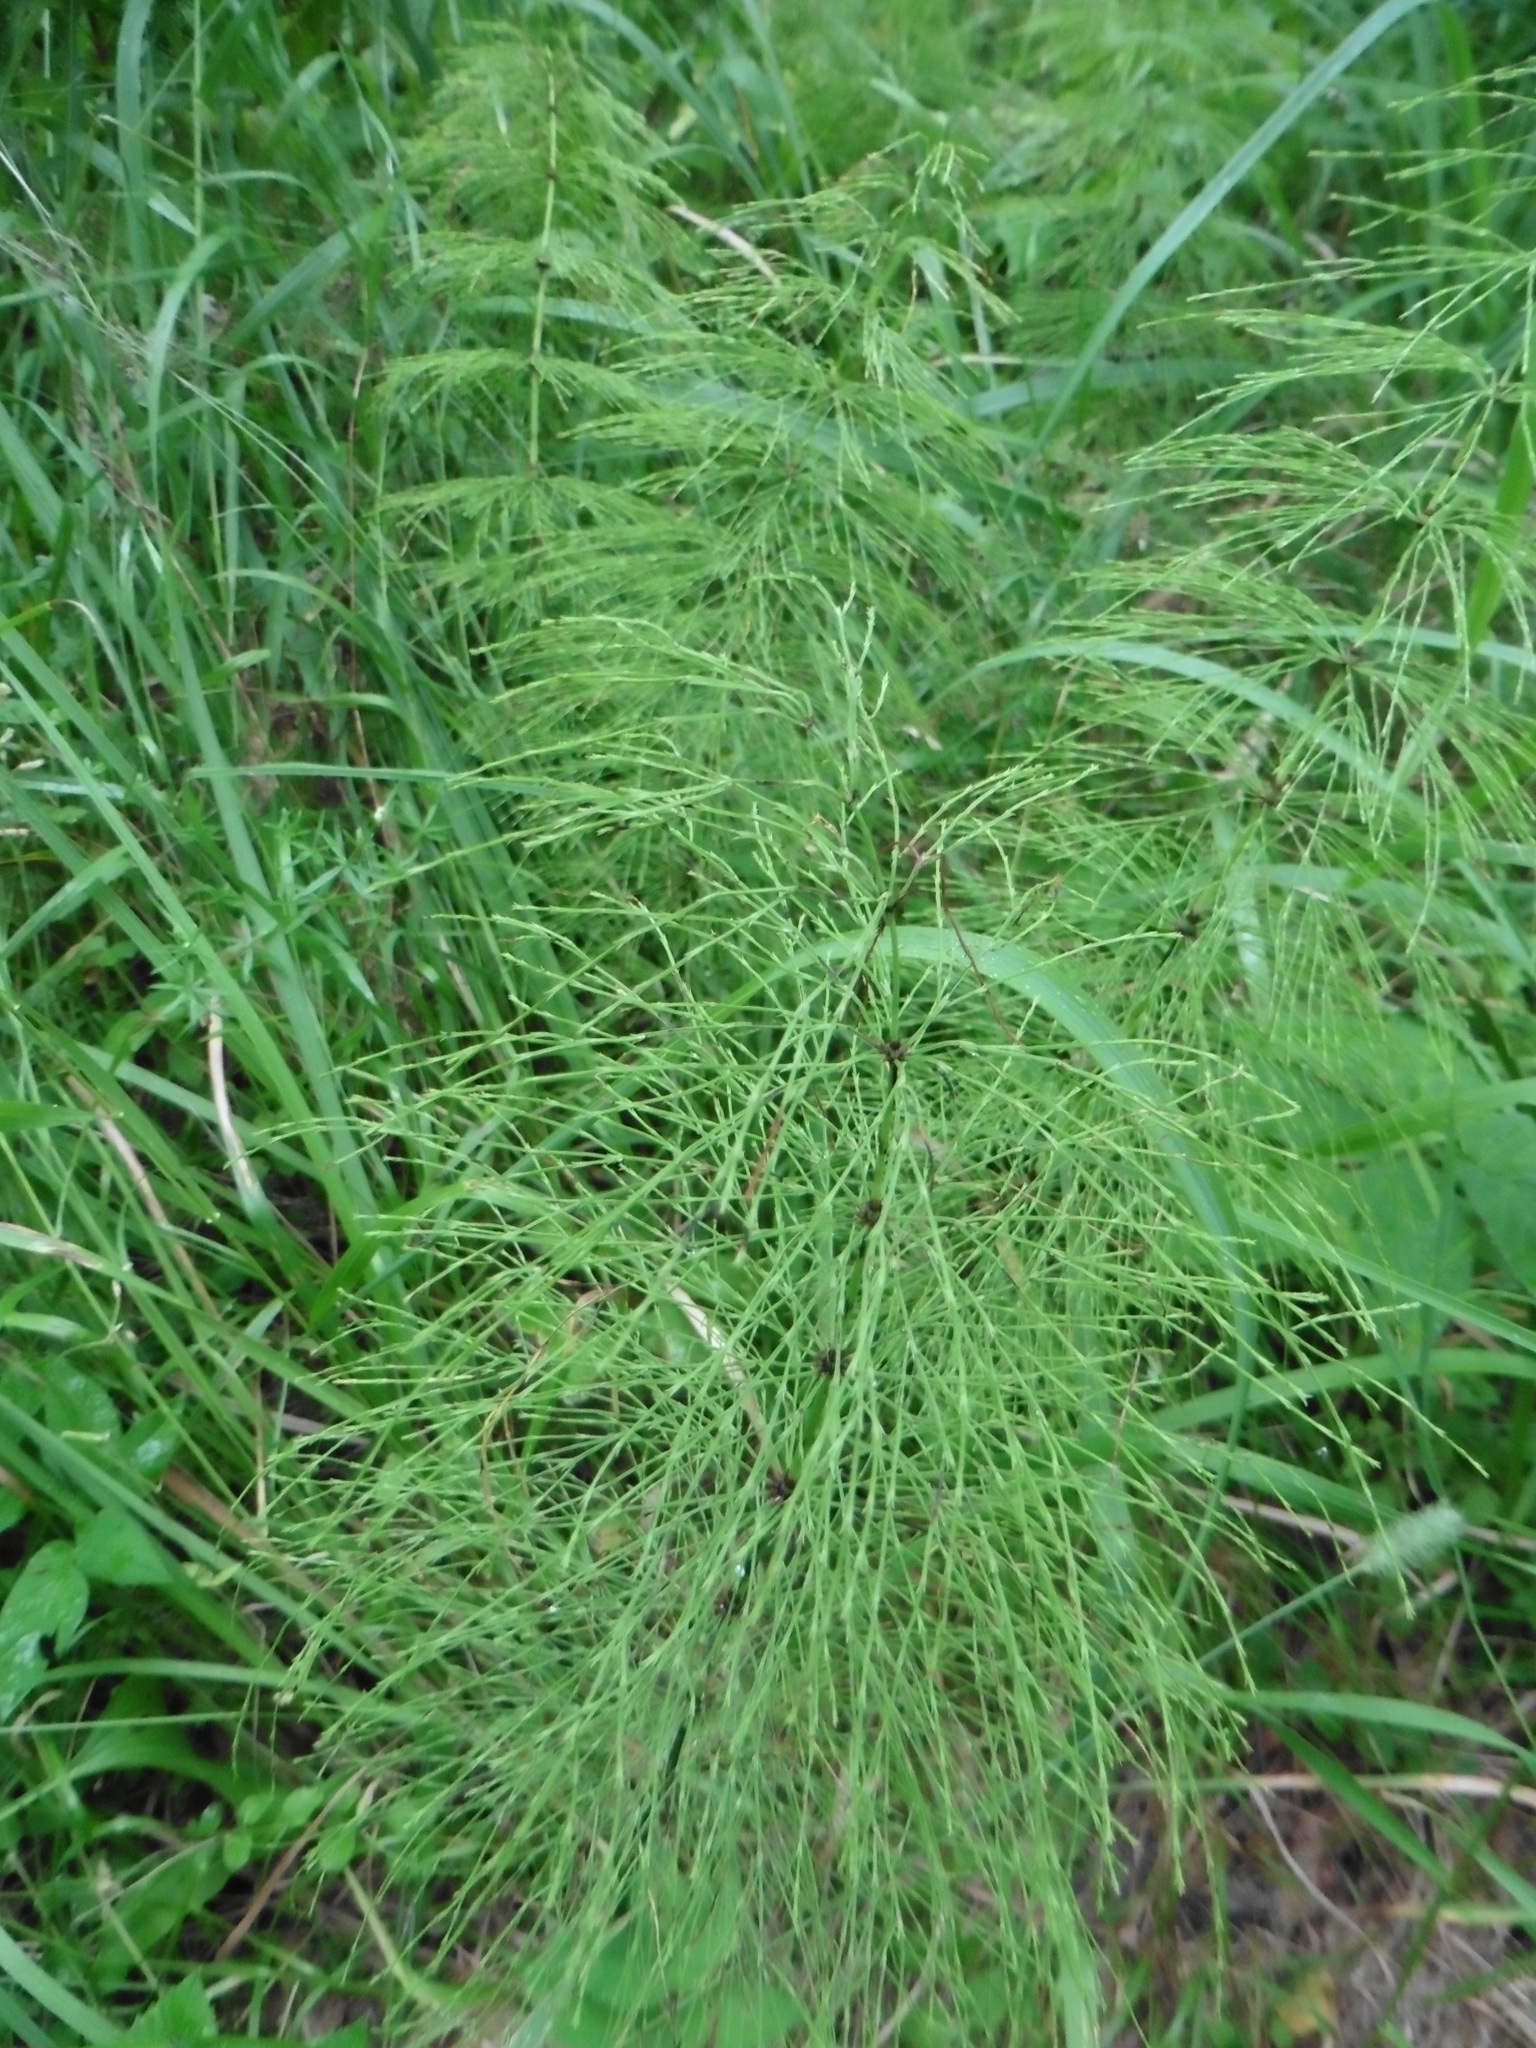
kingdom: Plantae
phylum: Tracheophyta
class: Polypodiopsida
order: Equisetales
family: Equisetaceae
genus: Equisetum
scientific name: Equisetum sylvaticum
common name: Wood horsetail
